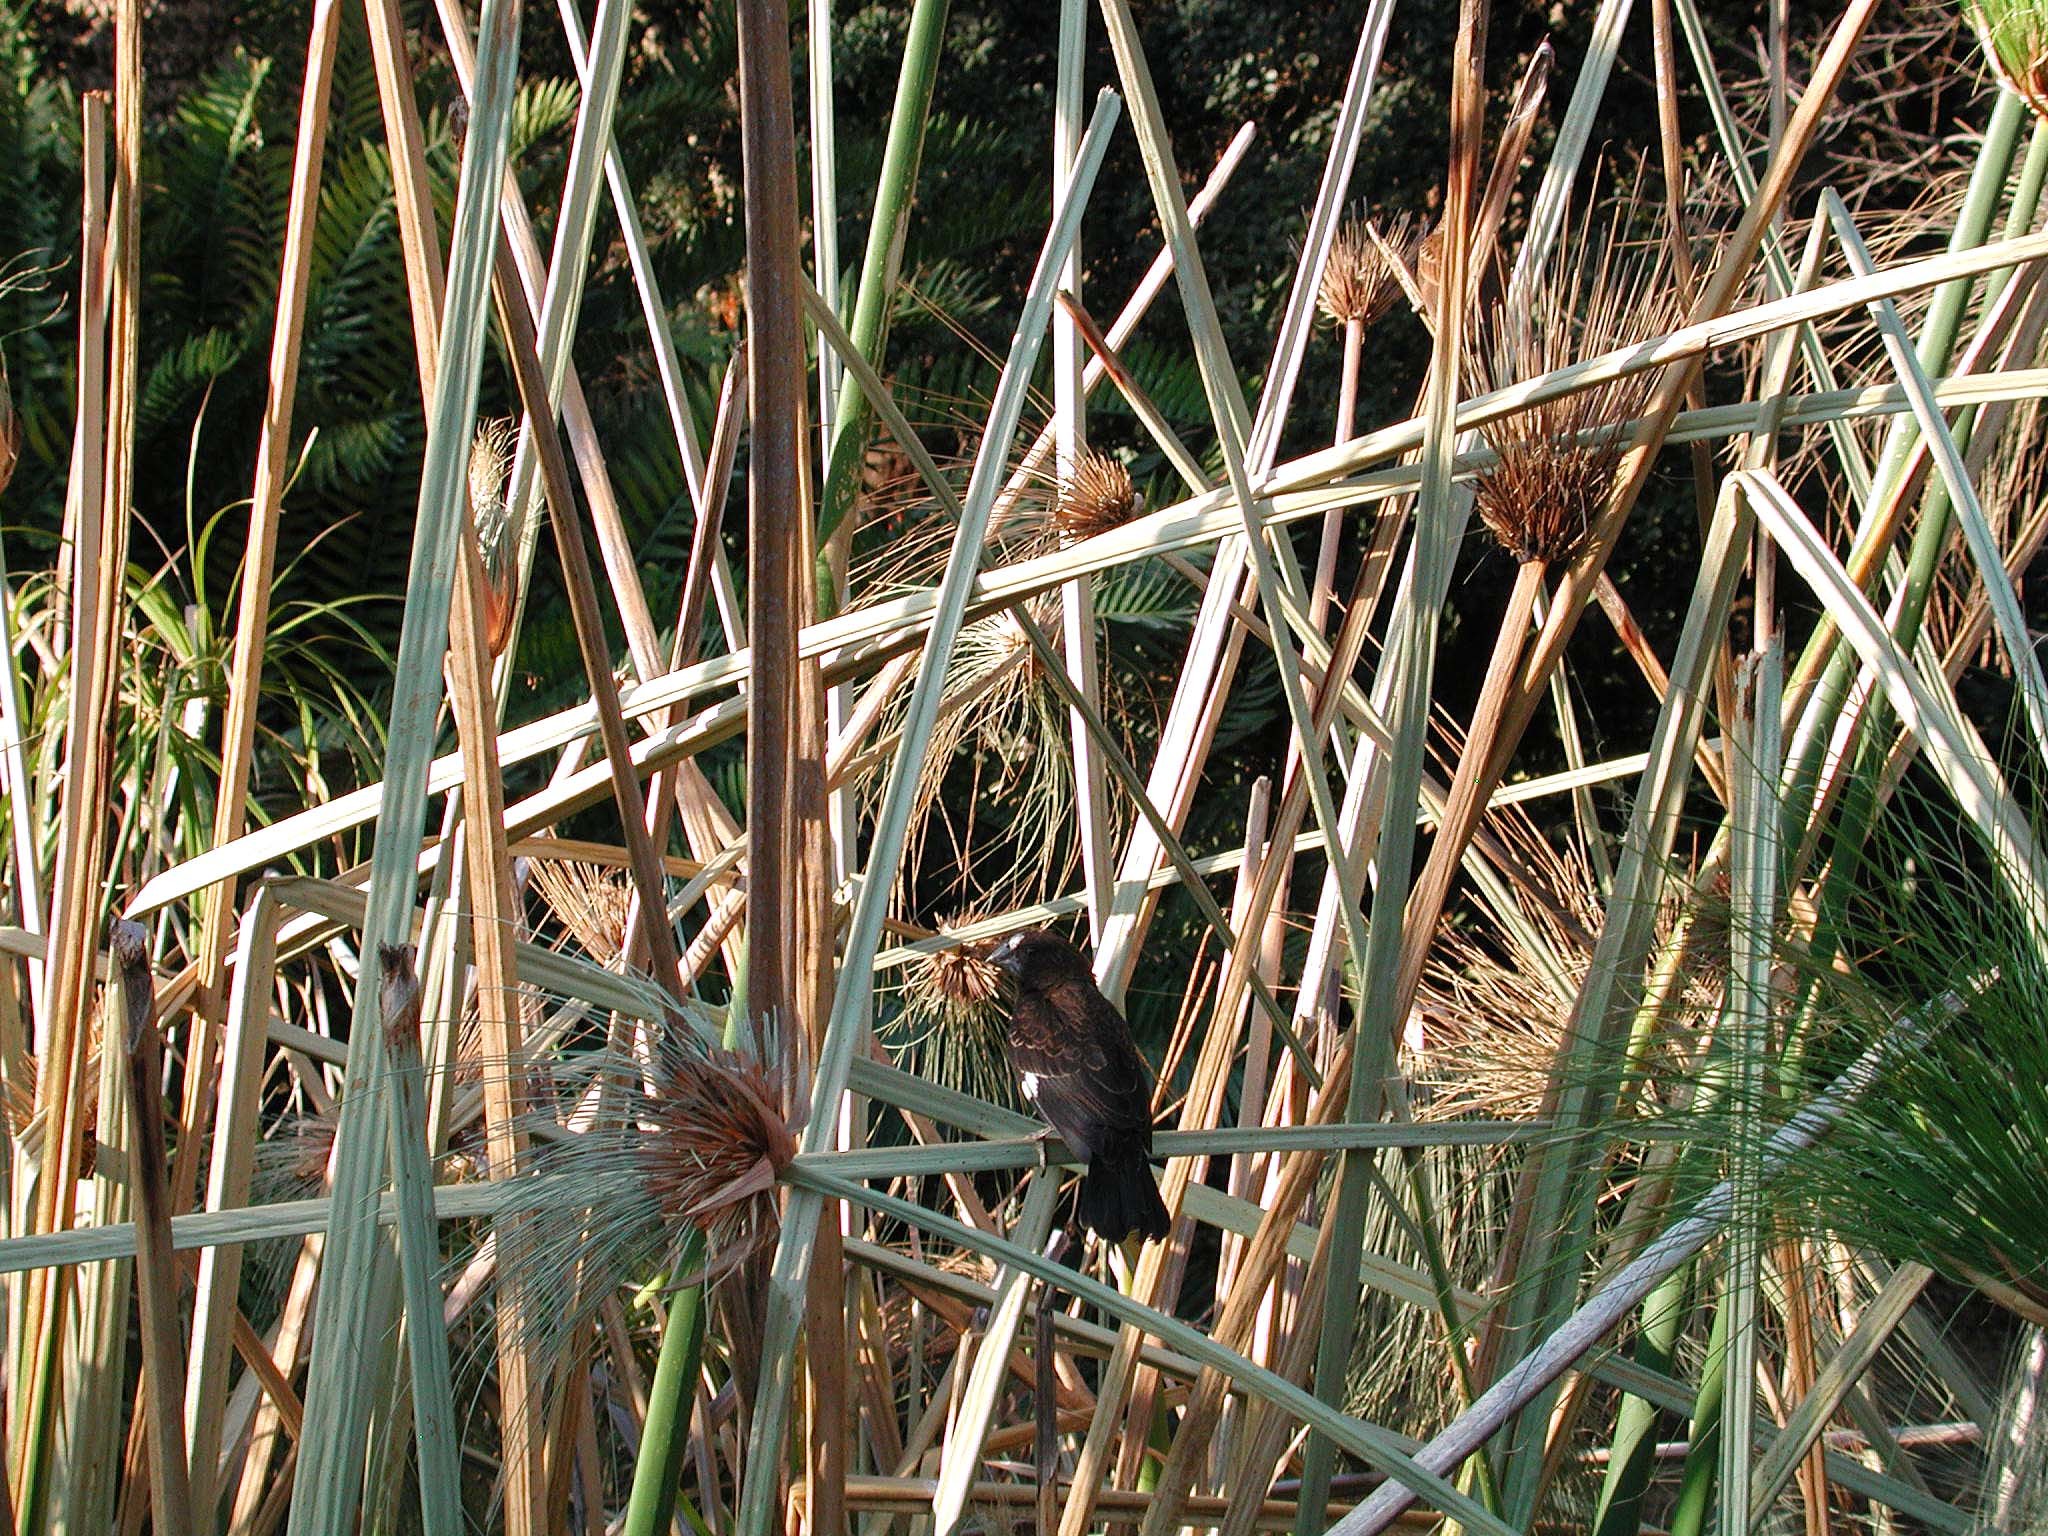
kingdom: Animalia
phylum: Chordata
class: Aves
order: Passeriformes
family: Ploceidae
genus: Amblyospiza
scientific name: Amblyospiza albifrons
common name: Thick-billed weaver
